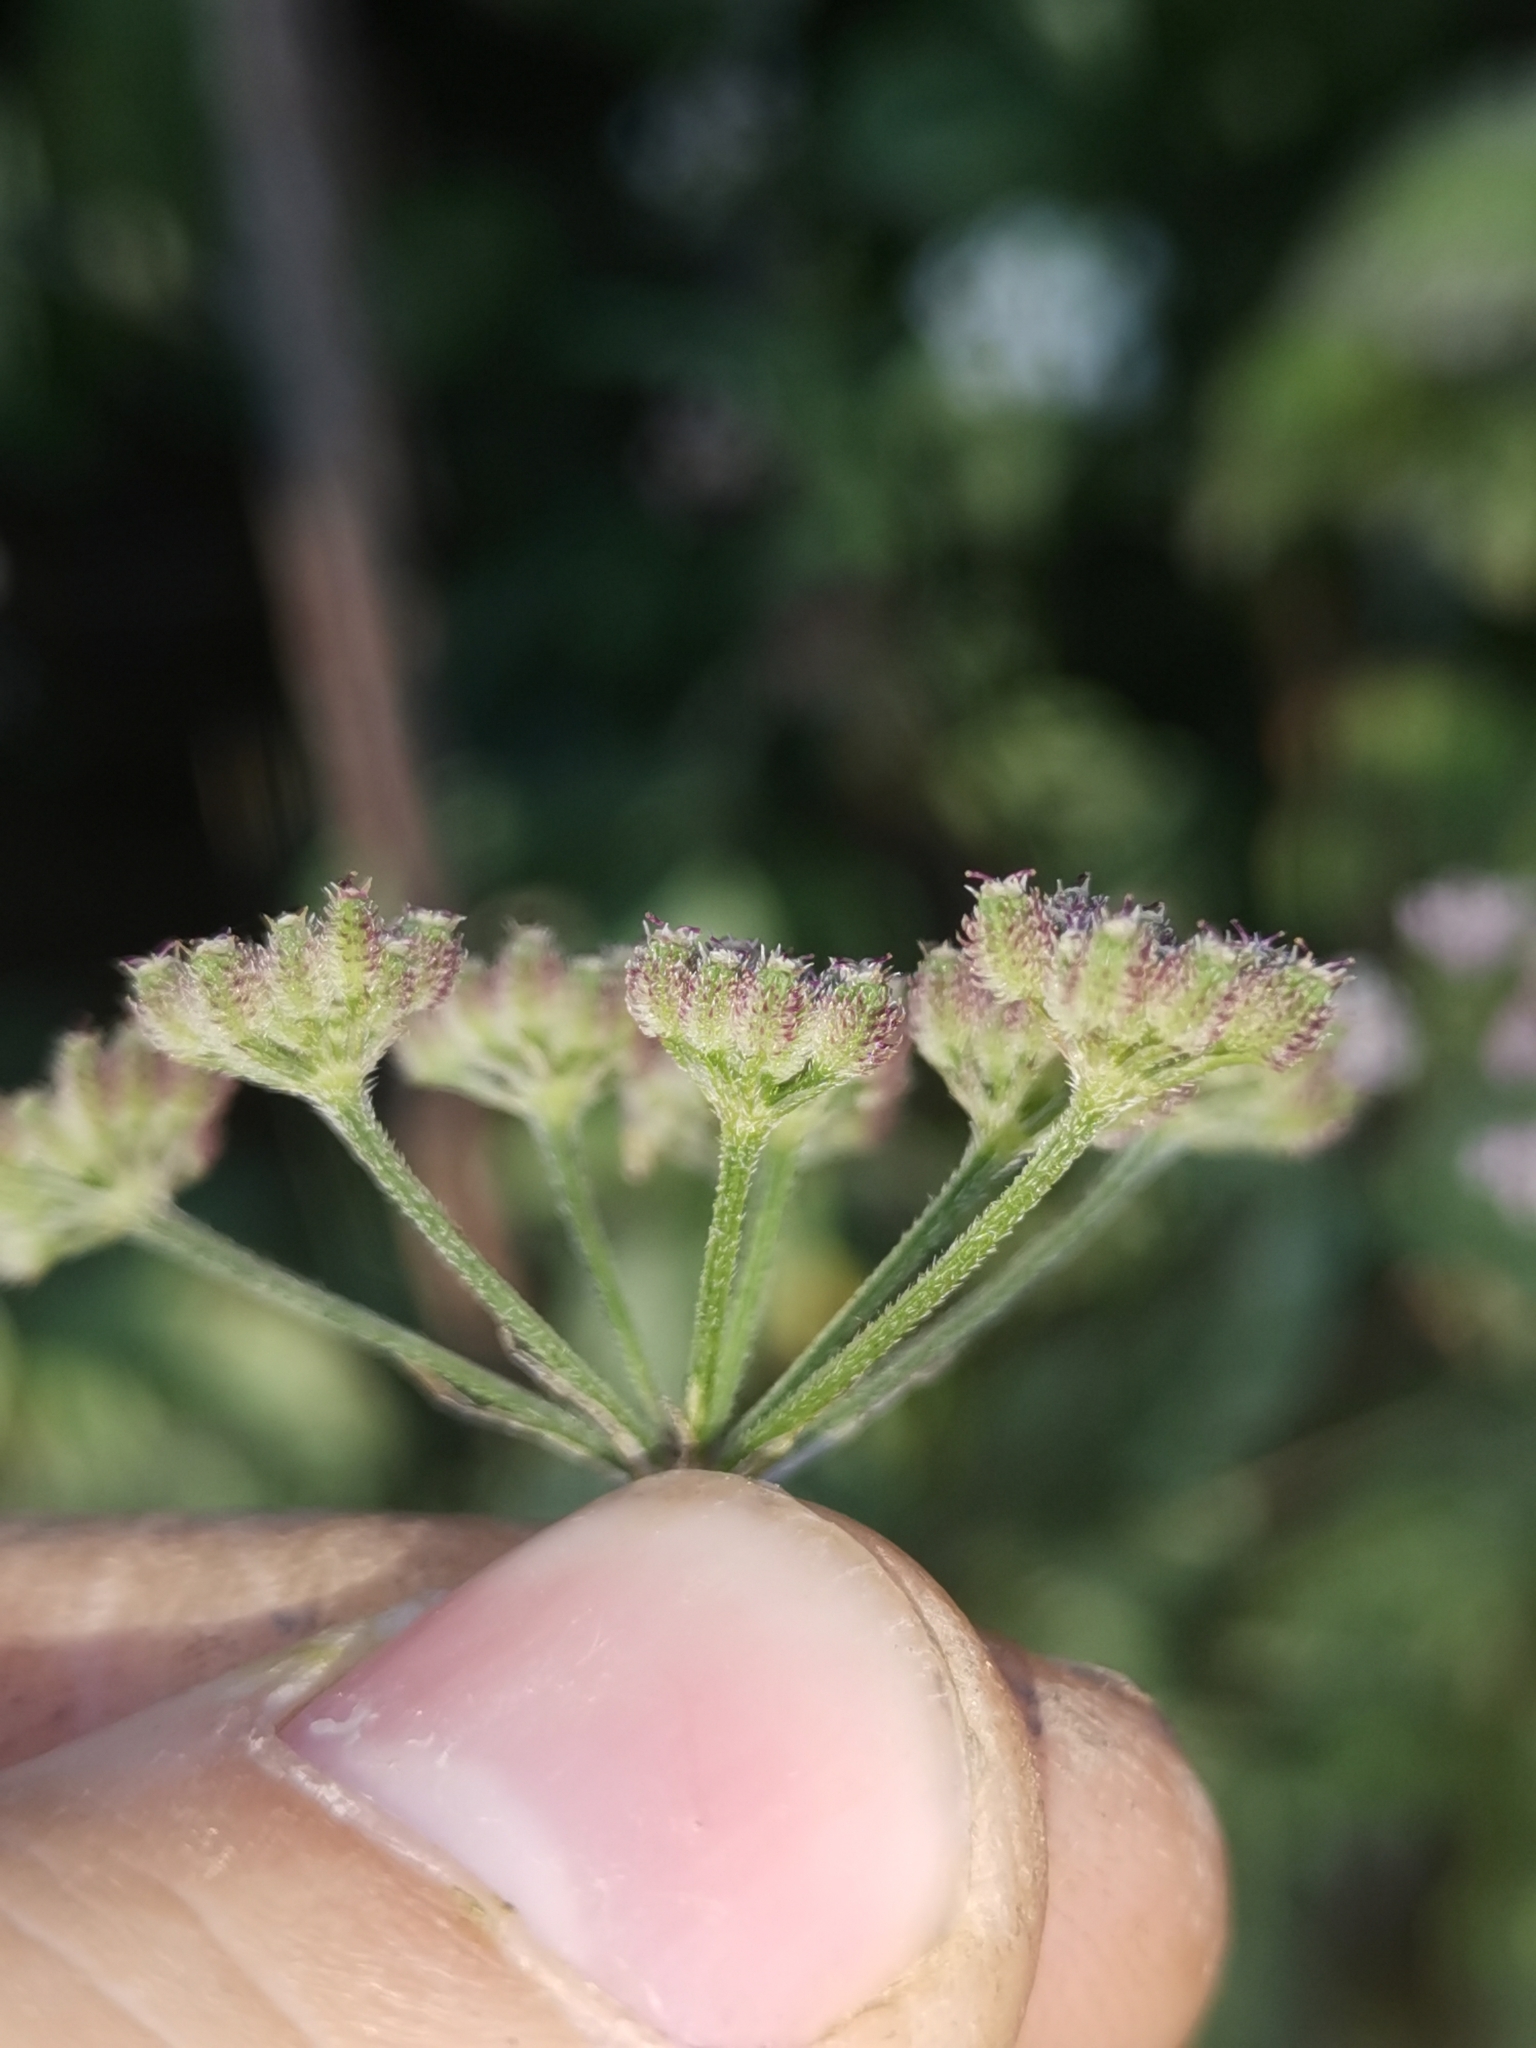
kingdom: Plantae
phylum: Tracheophyta
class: Magnoliopsida
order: Apiales
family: Apiaceae
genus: Torilis
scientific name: Torilis japonica
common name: Upright hedge-parsley
